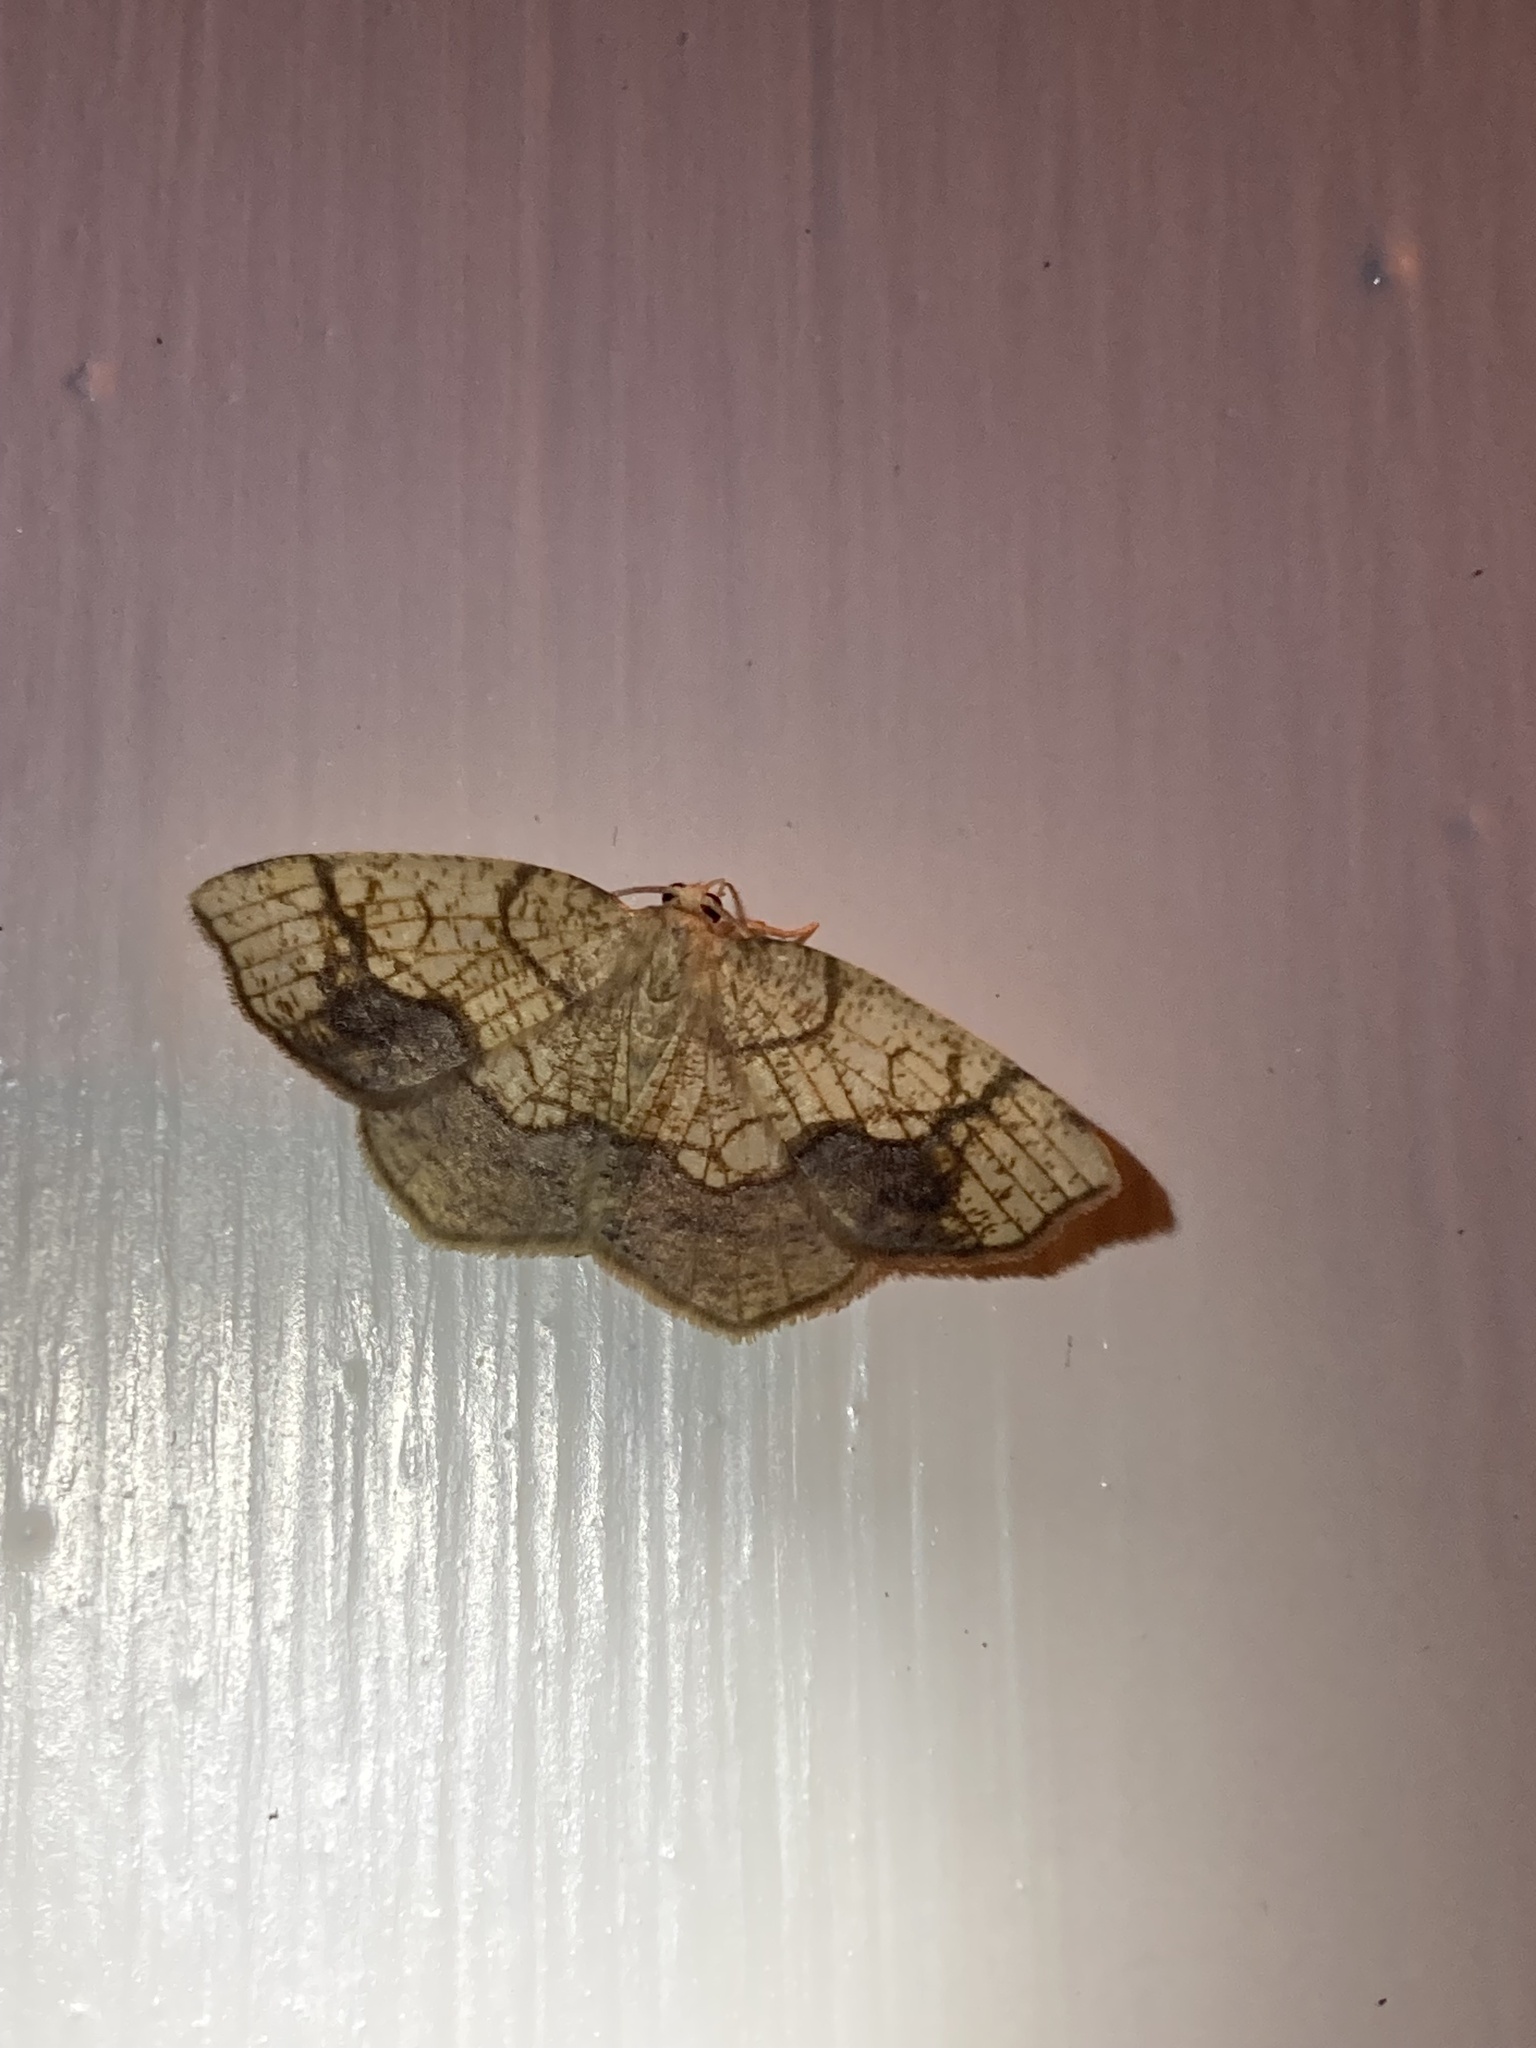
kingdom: Animalia
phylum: Arthropoda
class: Insecta
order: Lepidoptera
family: Geometridae
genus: Nematocampa
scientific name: Nematocampa resistaria
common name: Horned spanworm moth
